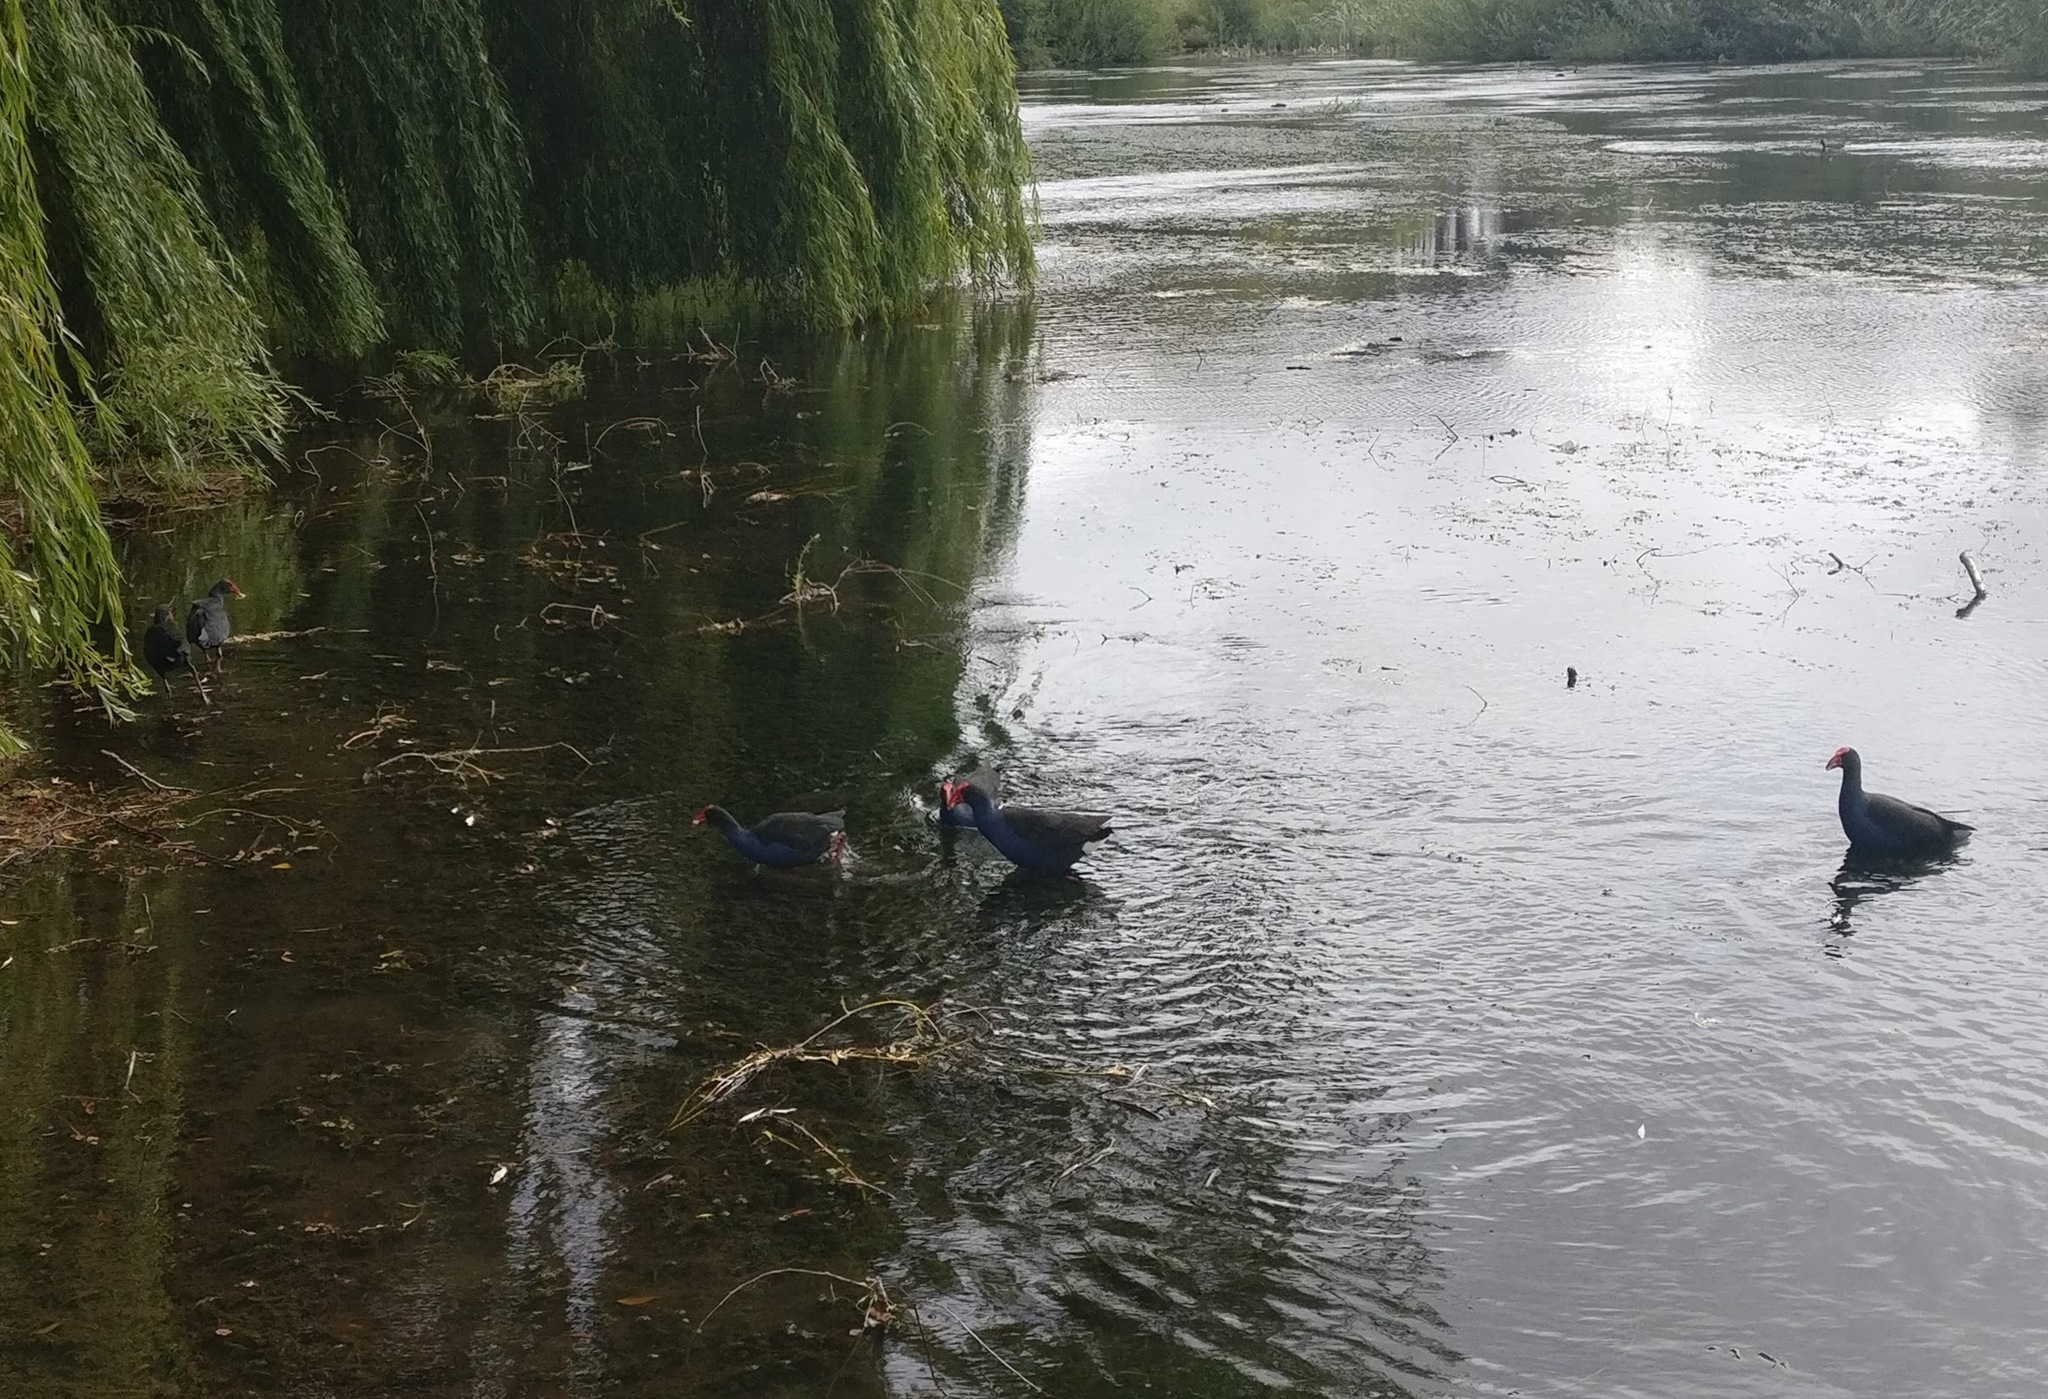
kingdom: Animalia
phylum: Chordata
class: Aves
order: Gruiformes
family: Rallidae
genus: Porphyrio
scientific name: Porphyrio melanotus
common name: Australasian swamphen
